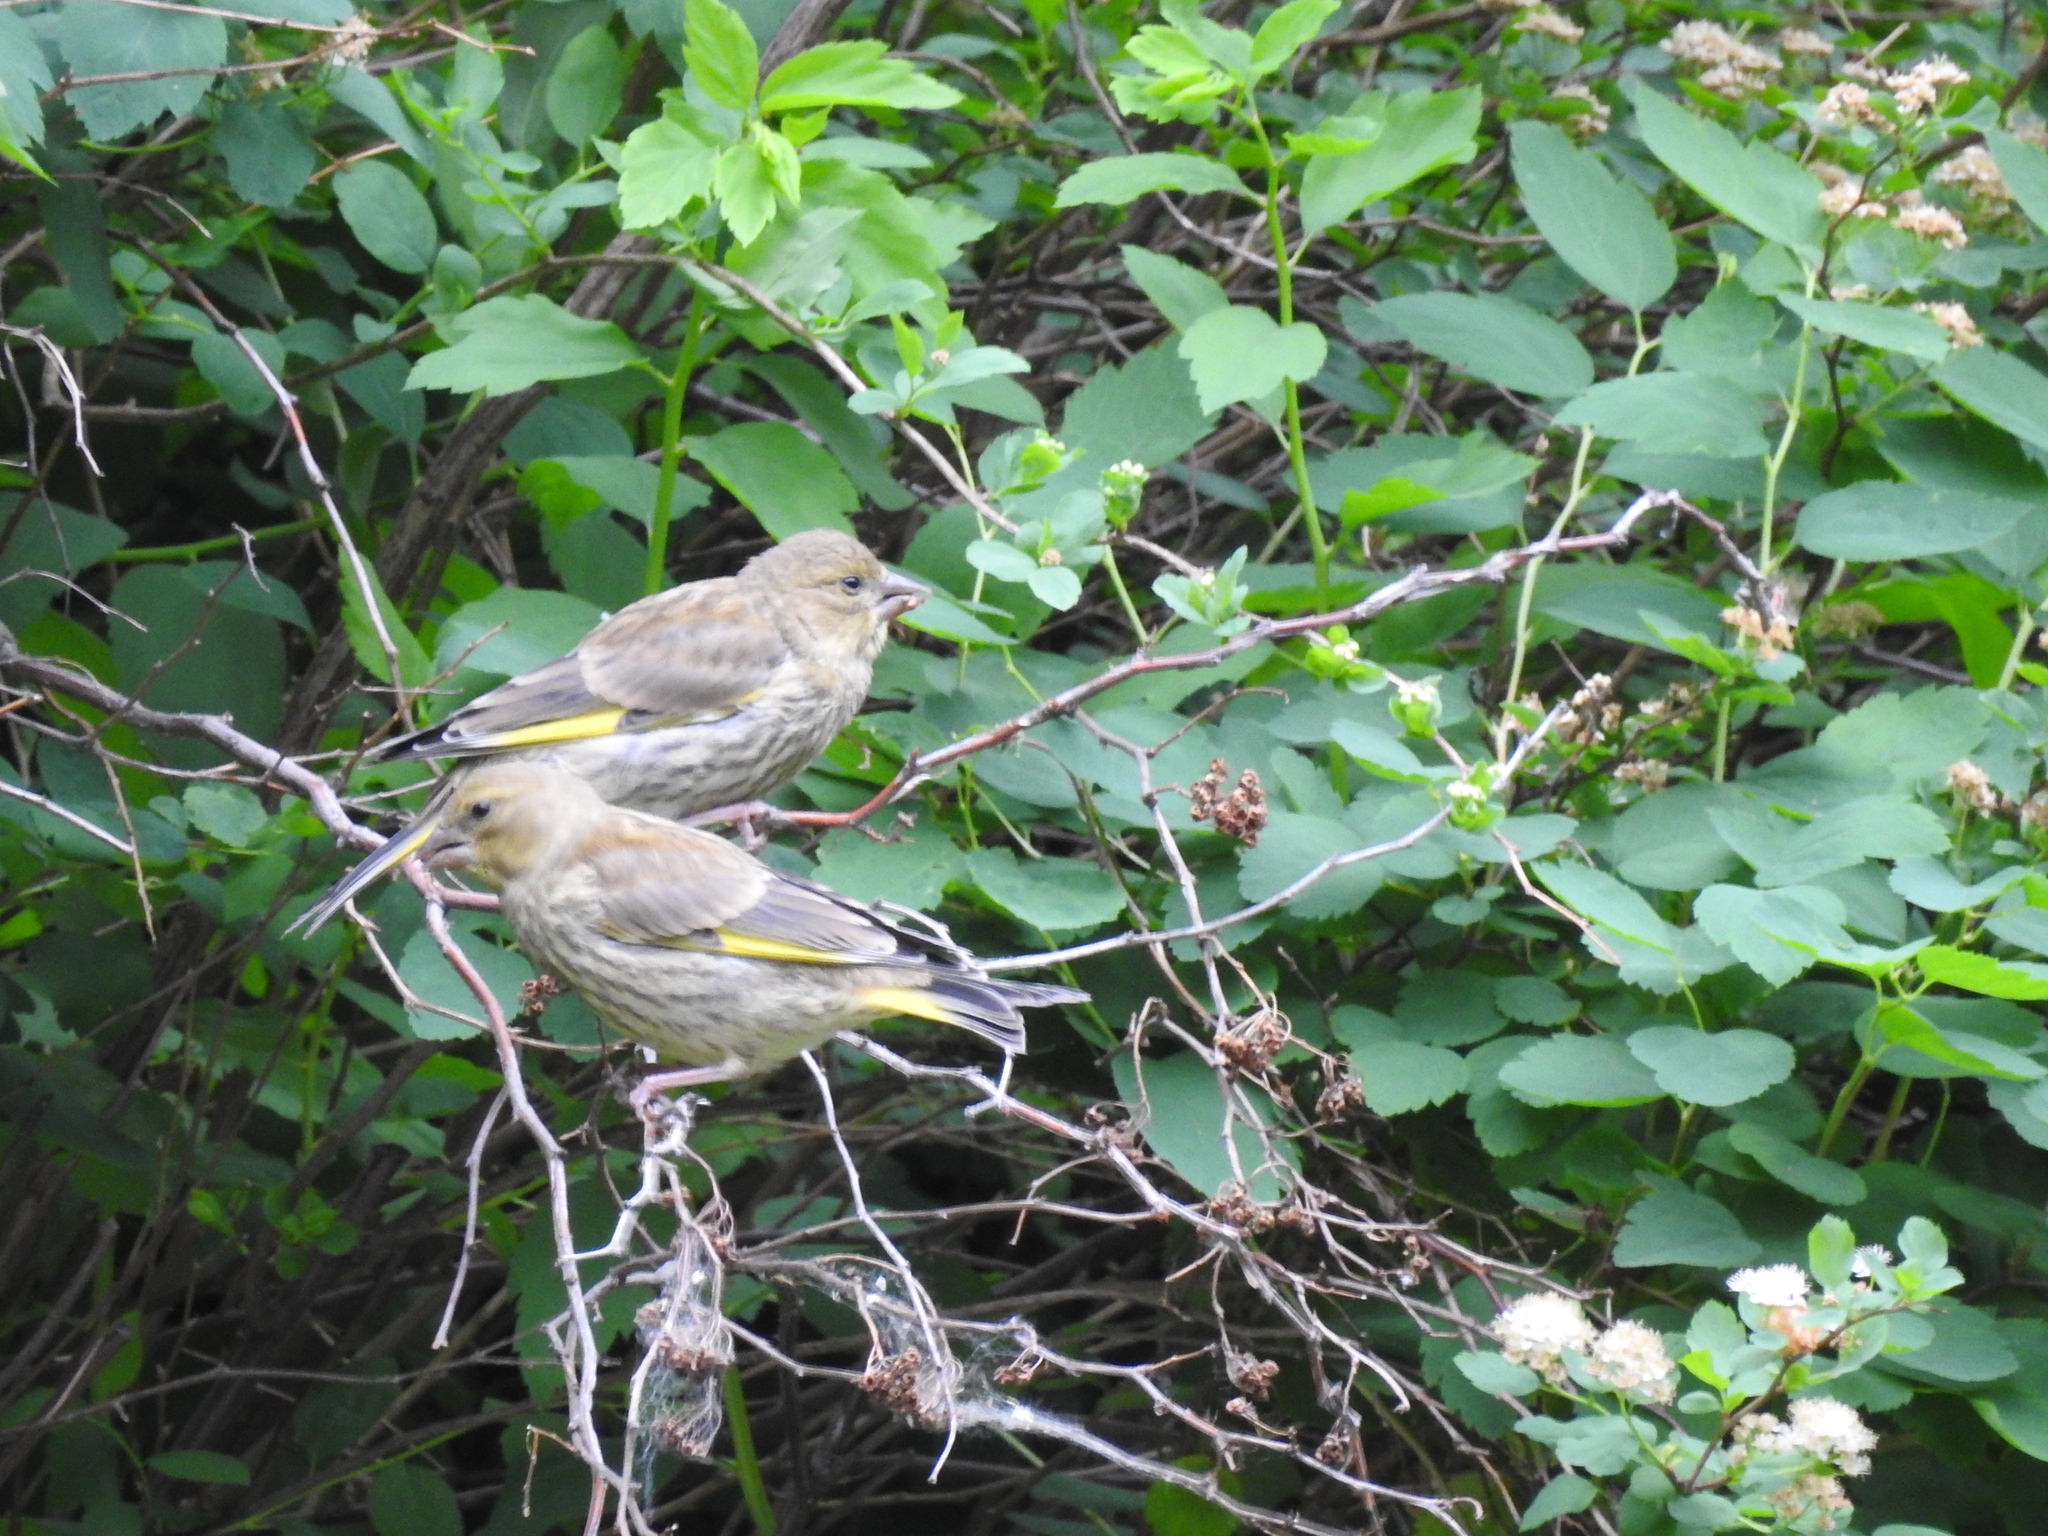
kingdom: Plantae
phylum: Tracheophyta
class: Liliopsida
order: Poales
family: Poaceae
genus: Chloris
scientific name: Chloris chloris
